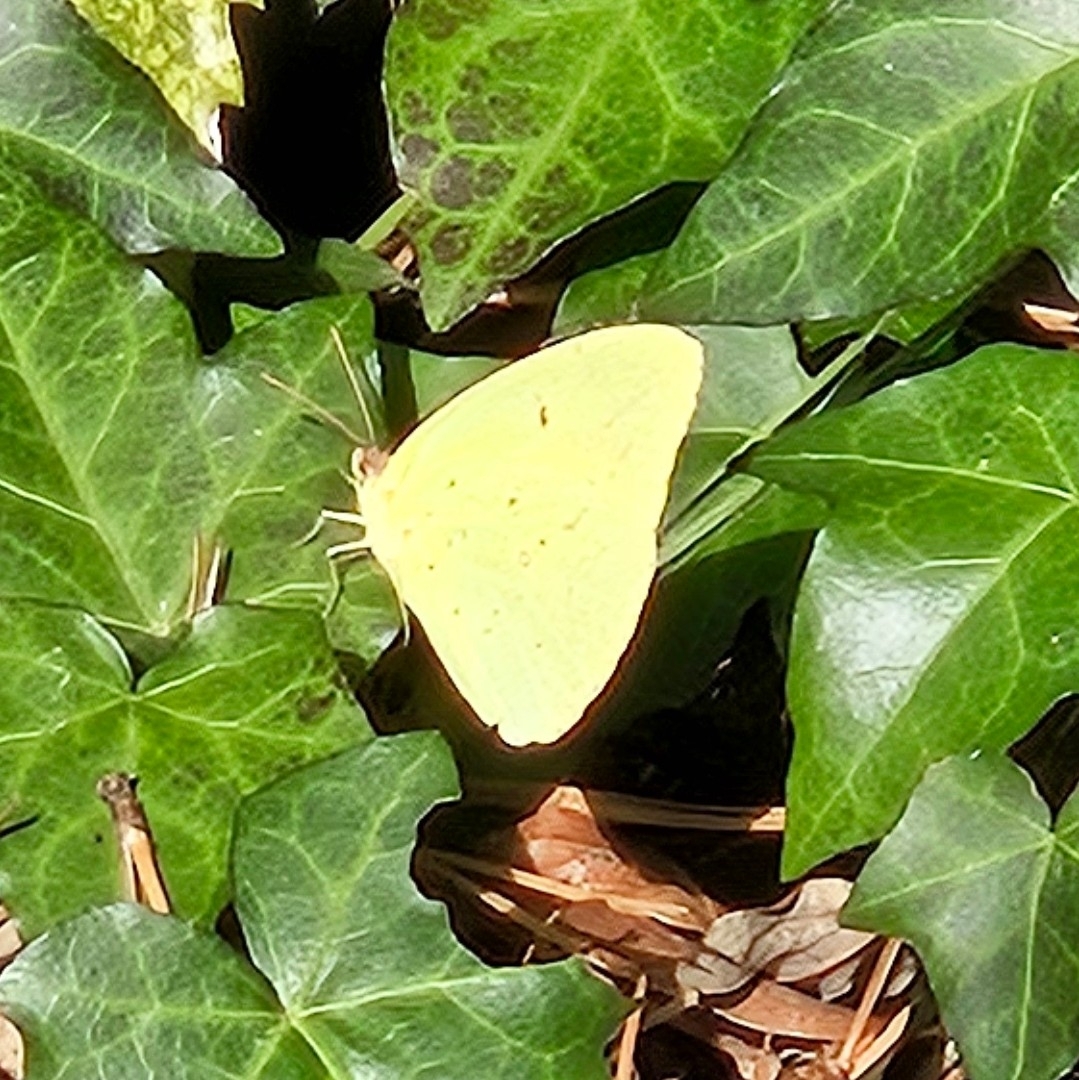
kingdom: Animalia
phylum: Arthropoda
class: Insecta
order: Lepidoptera
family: Pieridae
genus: Phoebis
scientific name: Phoebis sennae
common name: Cloudless sulphur
